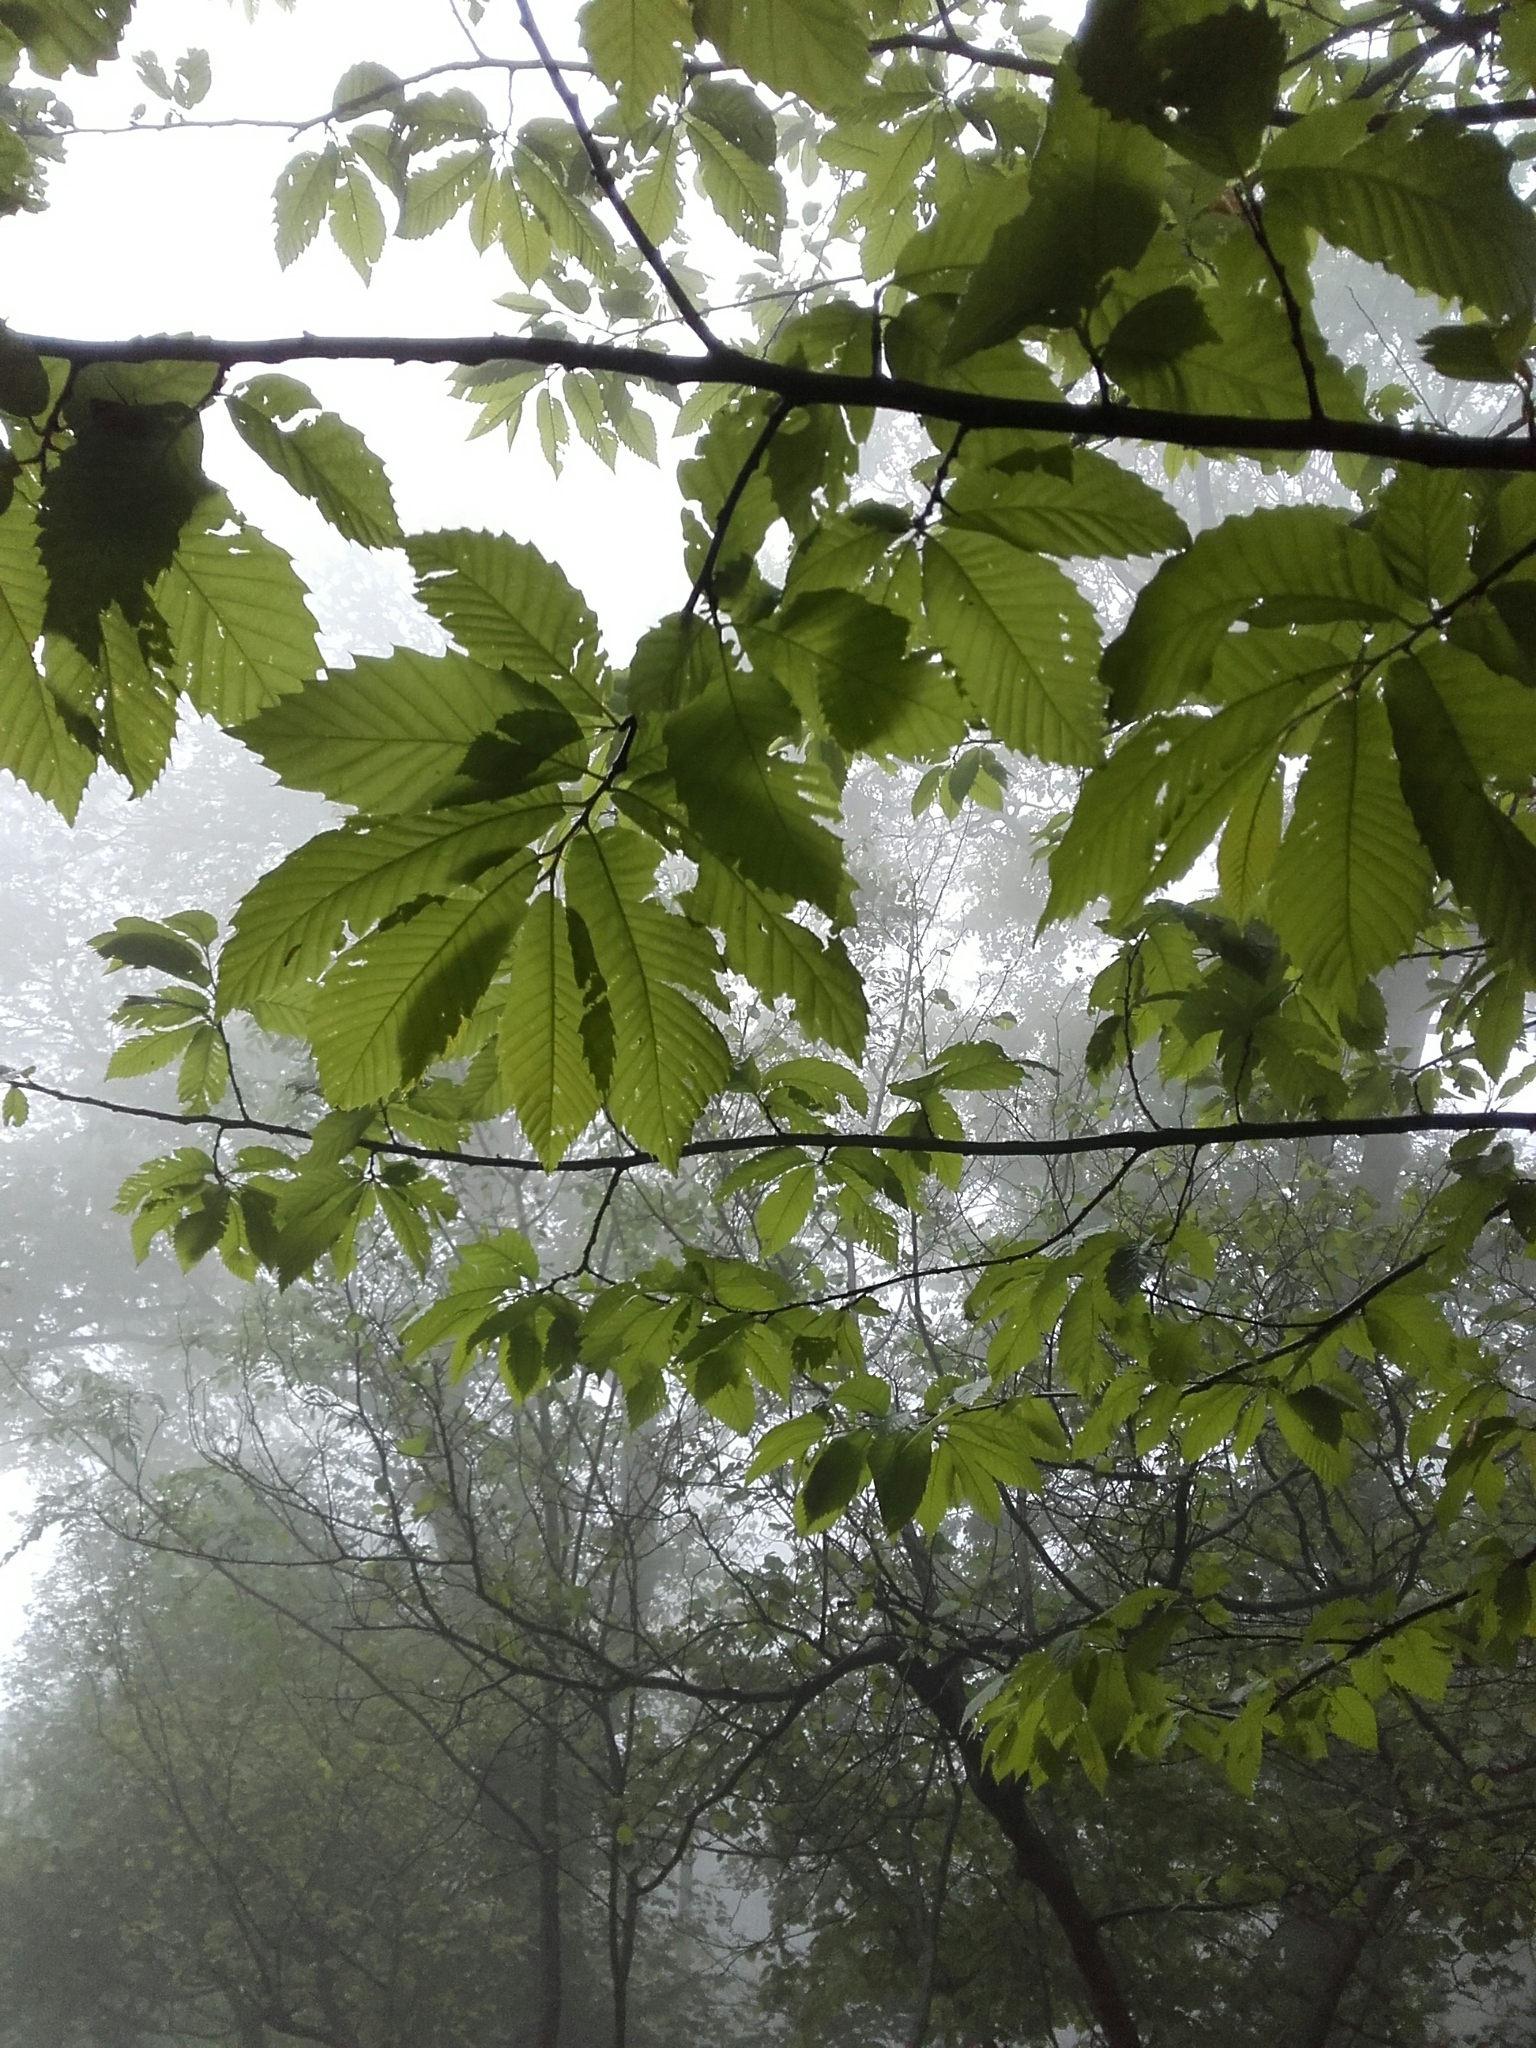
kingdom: Plantae
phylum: Tracheophyta
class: Magnoliopsida
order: Fagales
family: Fagaceae
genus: Castanea
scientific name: Castanea sativa
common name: Sweet chestnut
